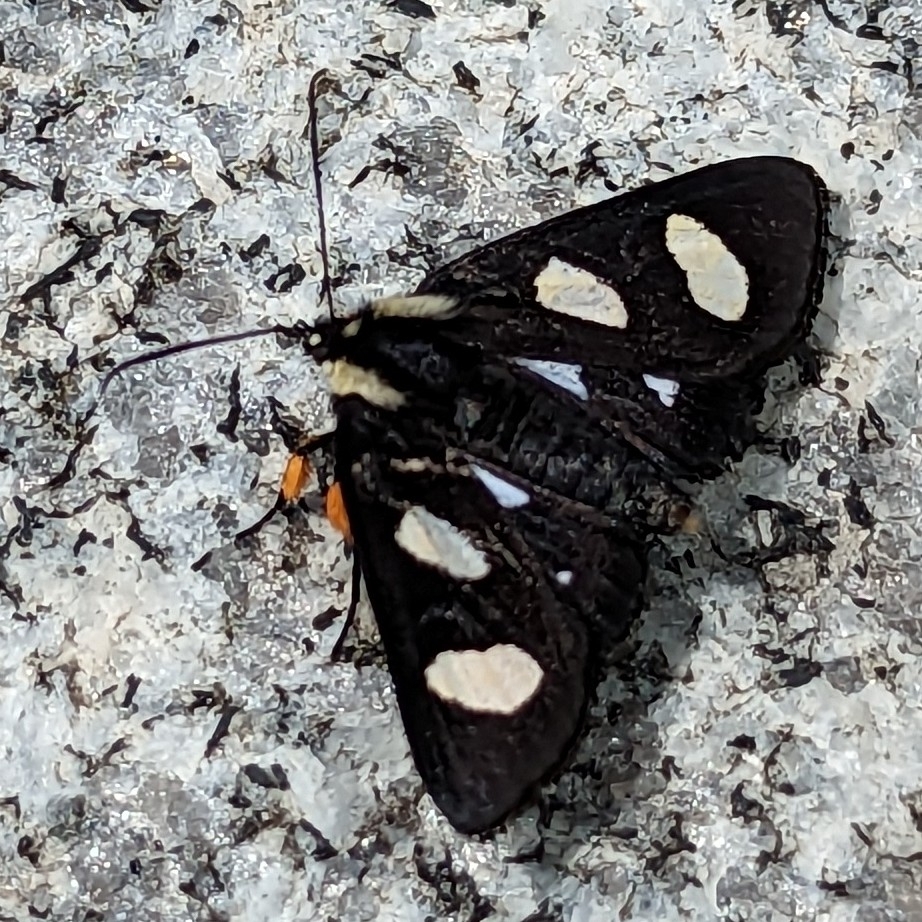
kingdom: Animalia
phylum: Arthropoda
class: Insecta
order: Lepidoptera
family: Noctuidae
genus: Alypia
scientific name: Alypia octomaculata
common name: Eight-spotted forester
